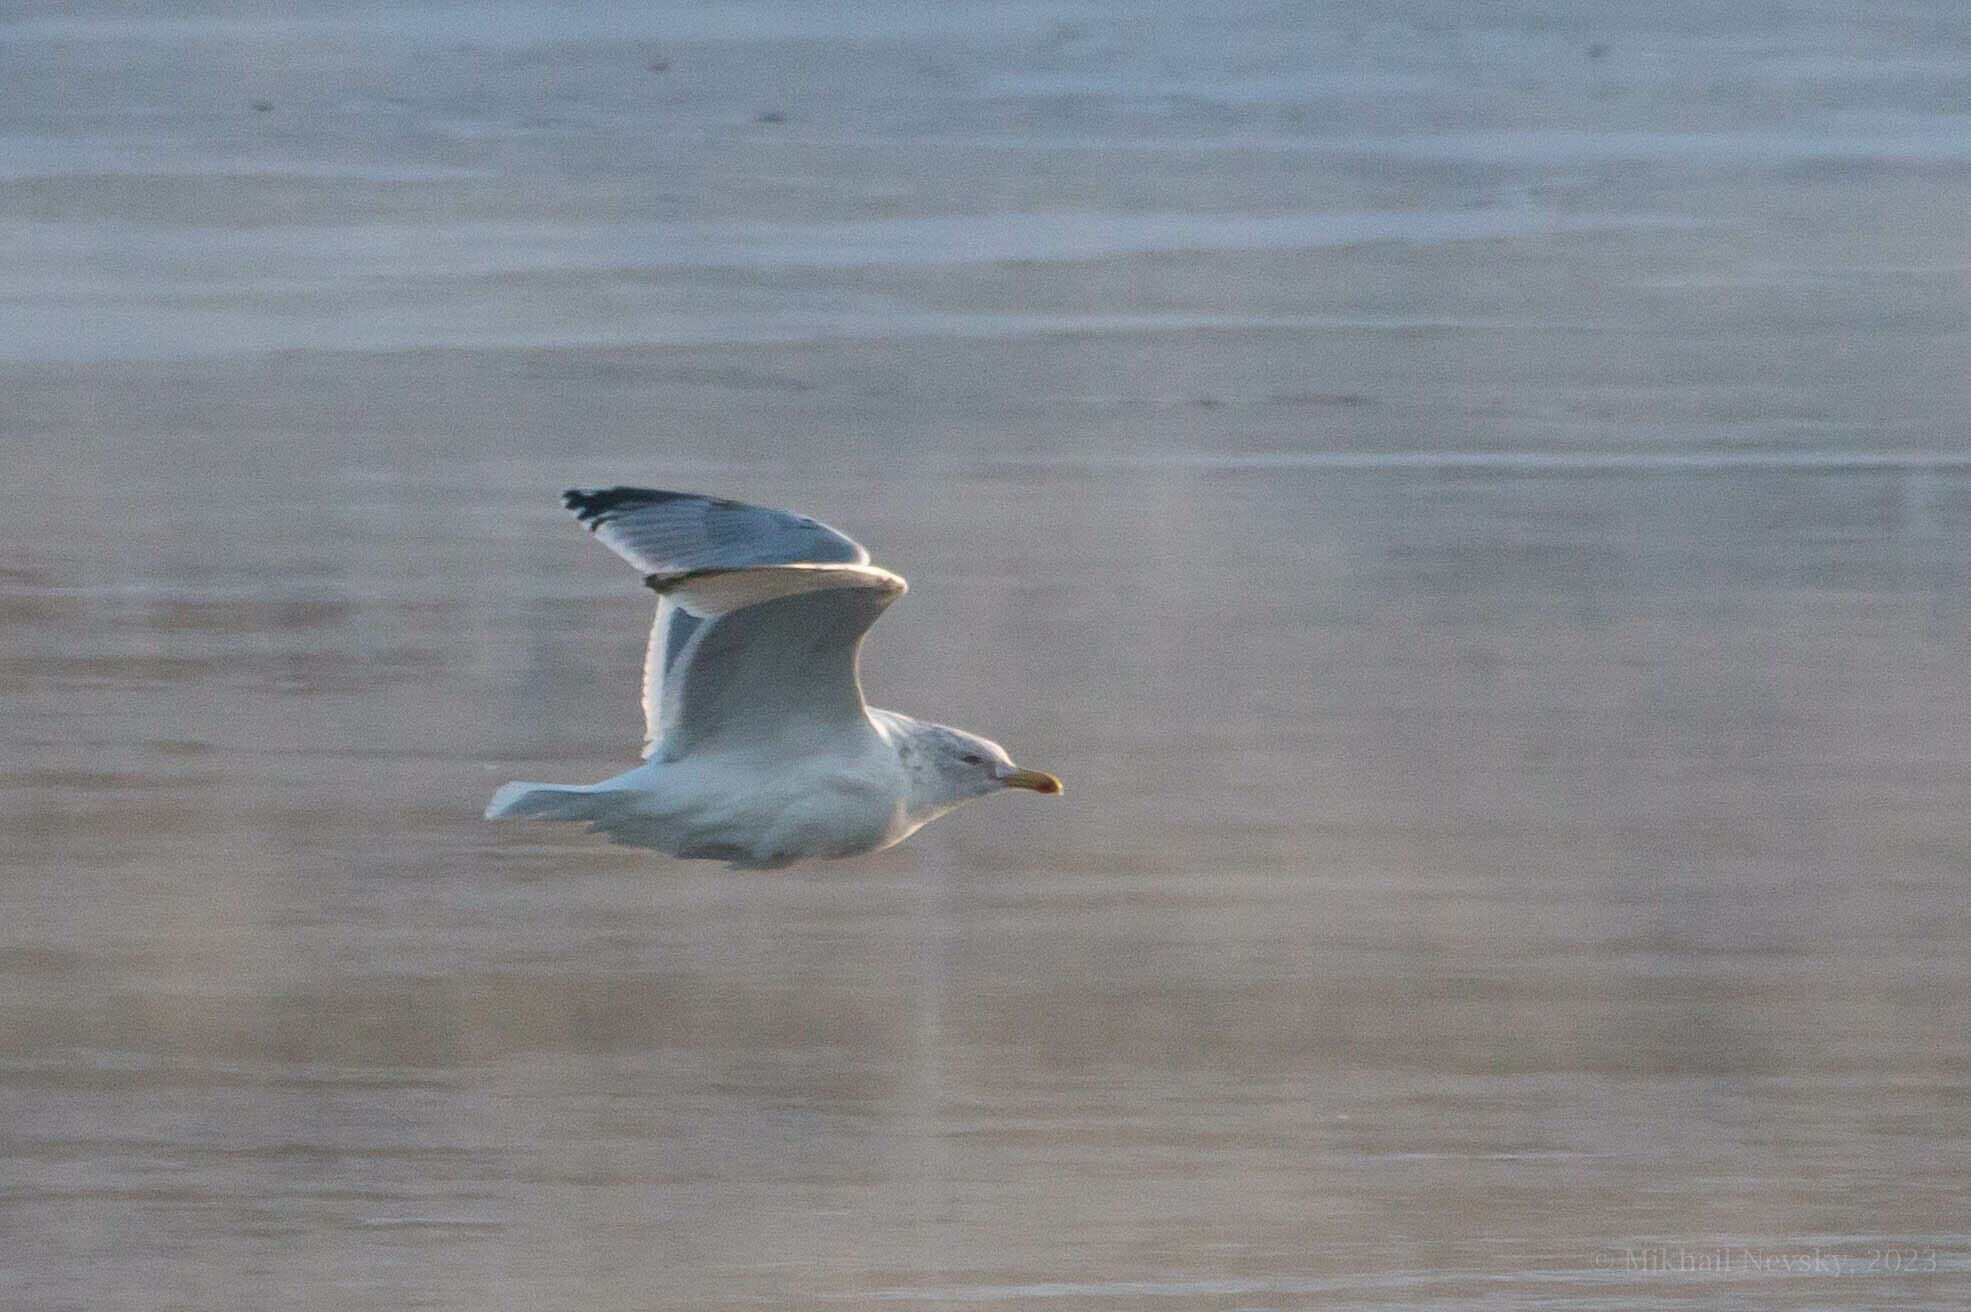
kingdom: Animalia
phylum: Chordata
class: Aves
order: Charadriiformes
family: Laridae
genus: Larus
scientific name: Larus argentatus
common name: Herring gull
